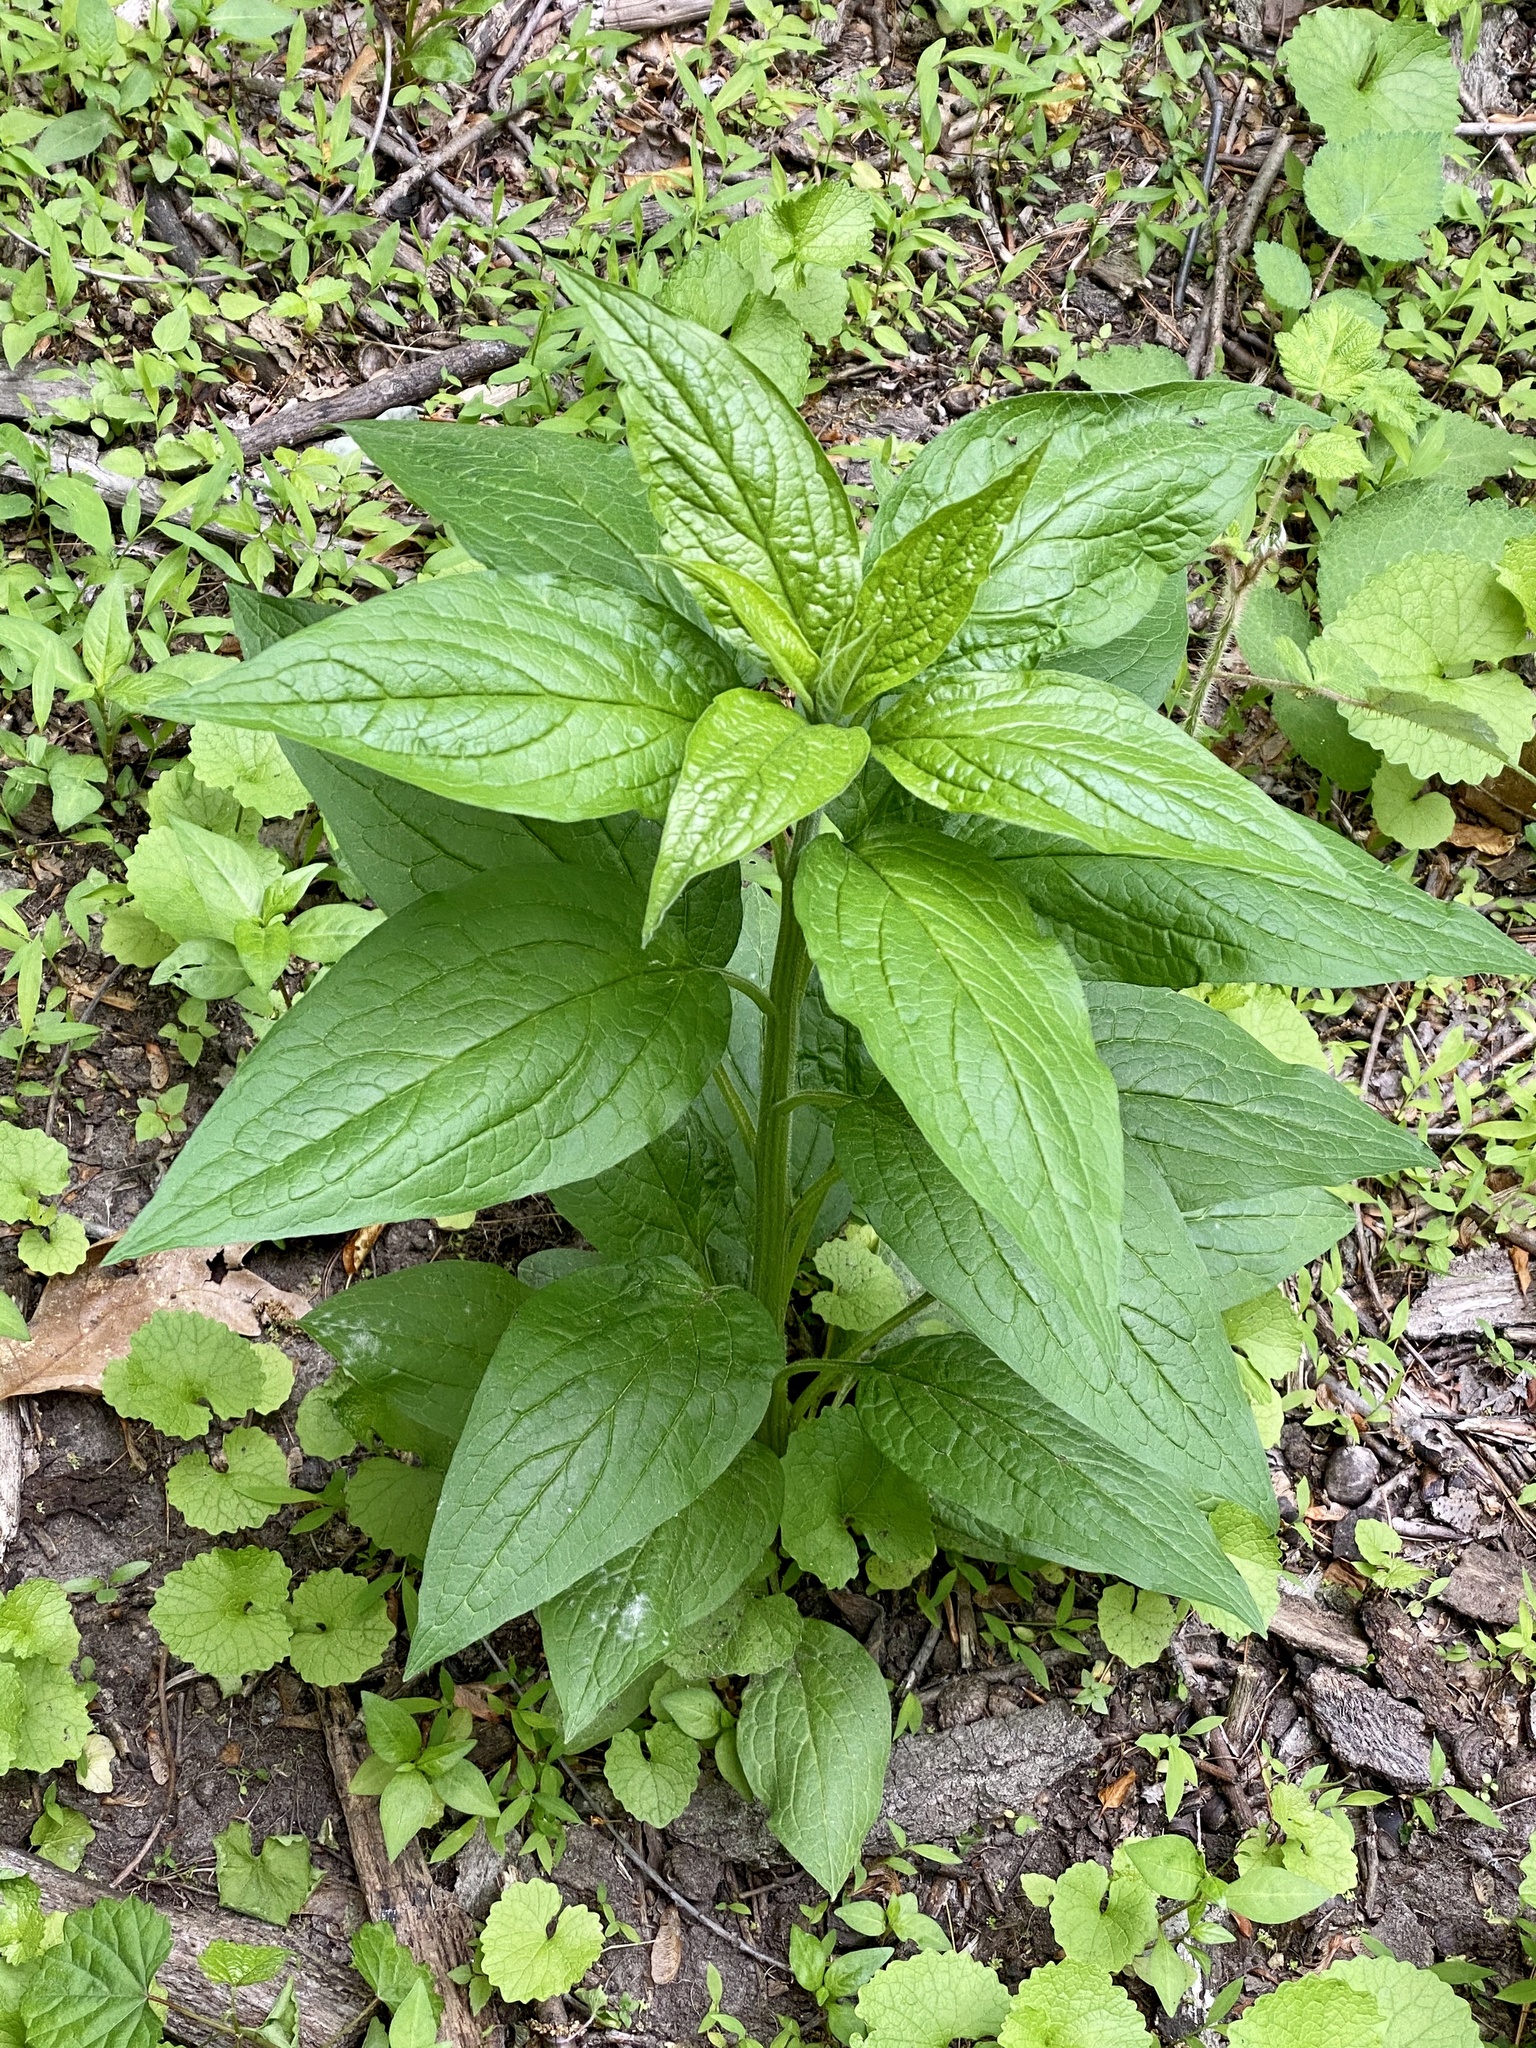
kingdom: Plantae
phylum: Tracheophyta
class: Magnoliopsida
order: Boraginales
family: Boraginaceae
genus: Hackelia
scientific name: Hackelia virginiana
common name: Beggar's-lice
